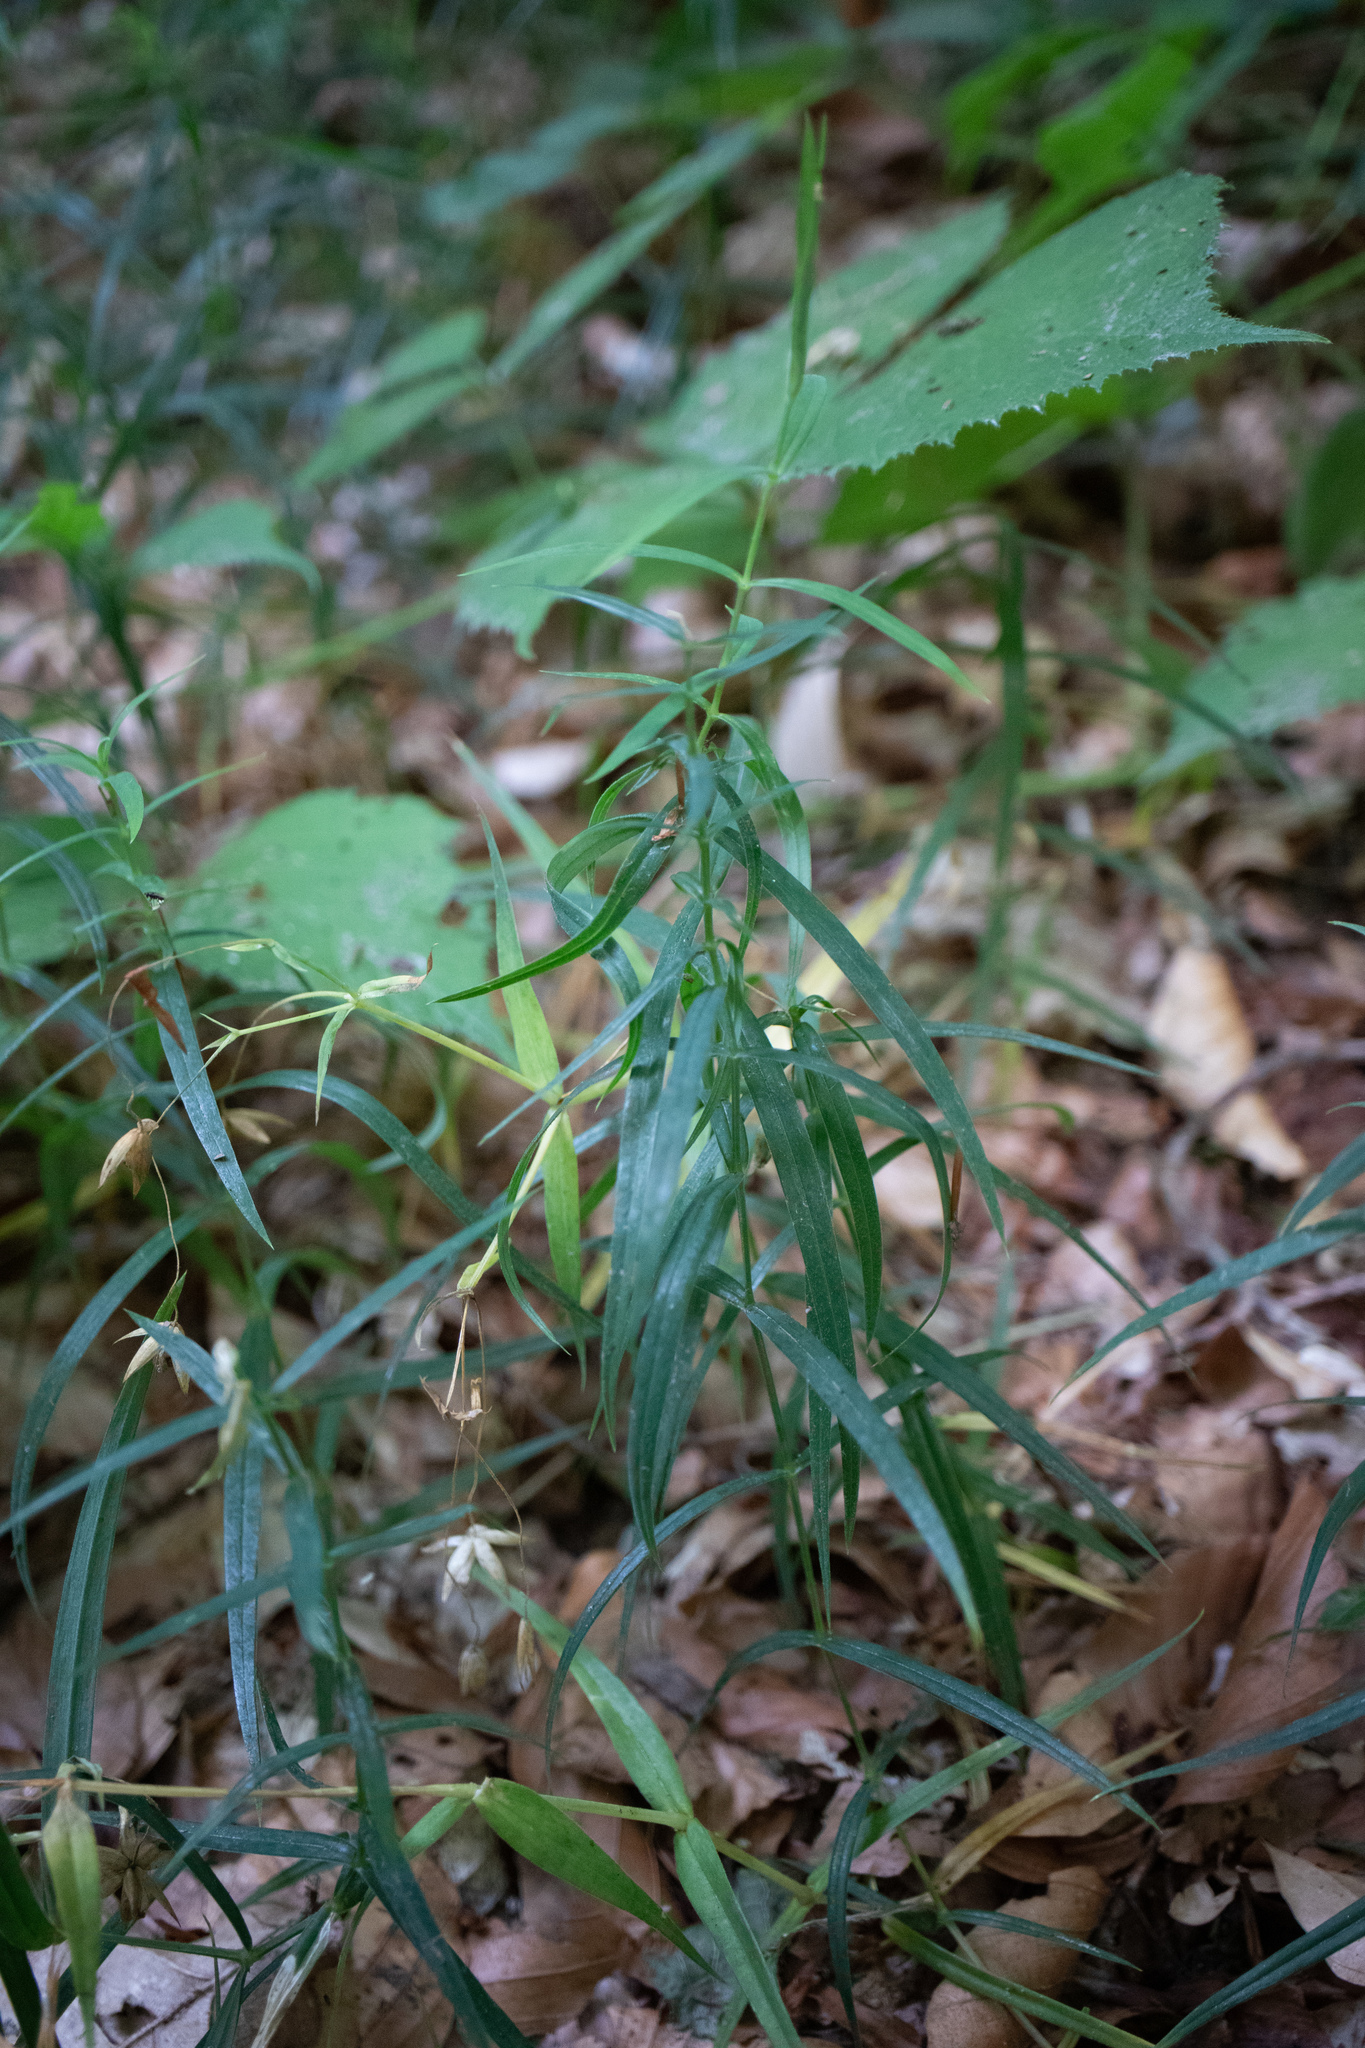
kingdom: Plantae
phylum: Tracheophyta
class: Magnoliopsida
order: Caryophyllales
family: Caryophyllaceae
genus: Rabelera
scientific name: Rabelera holostea
